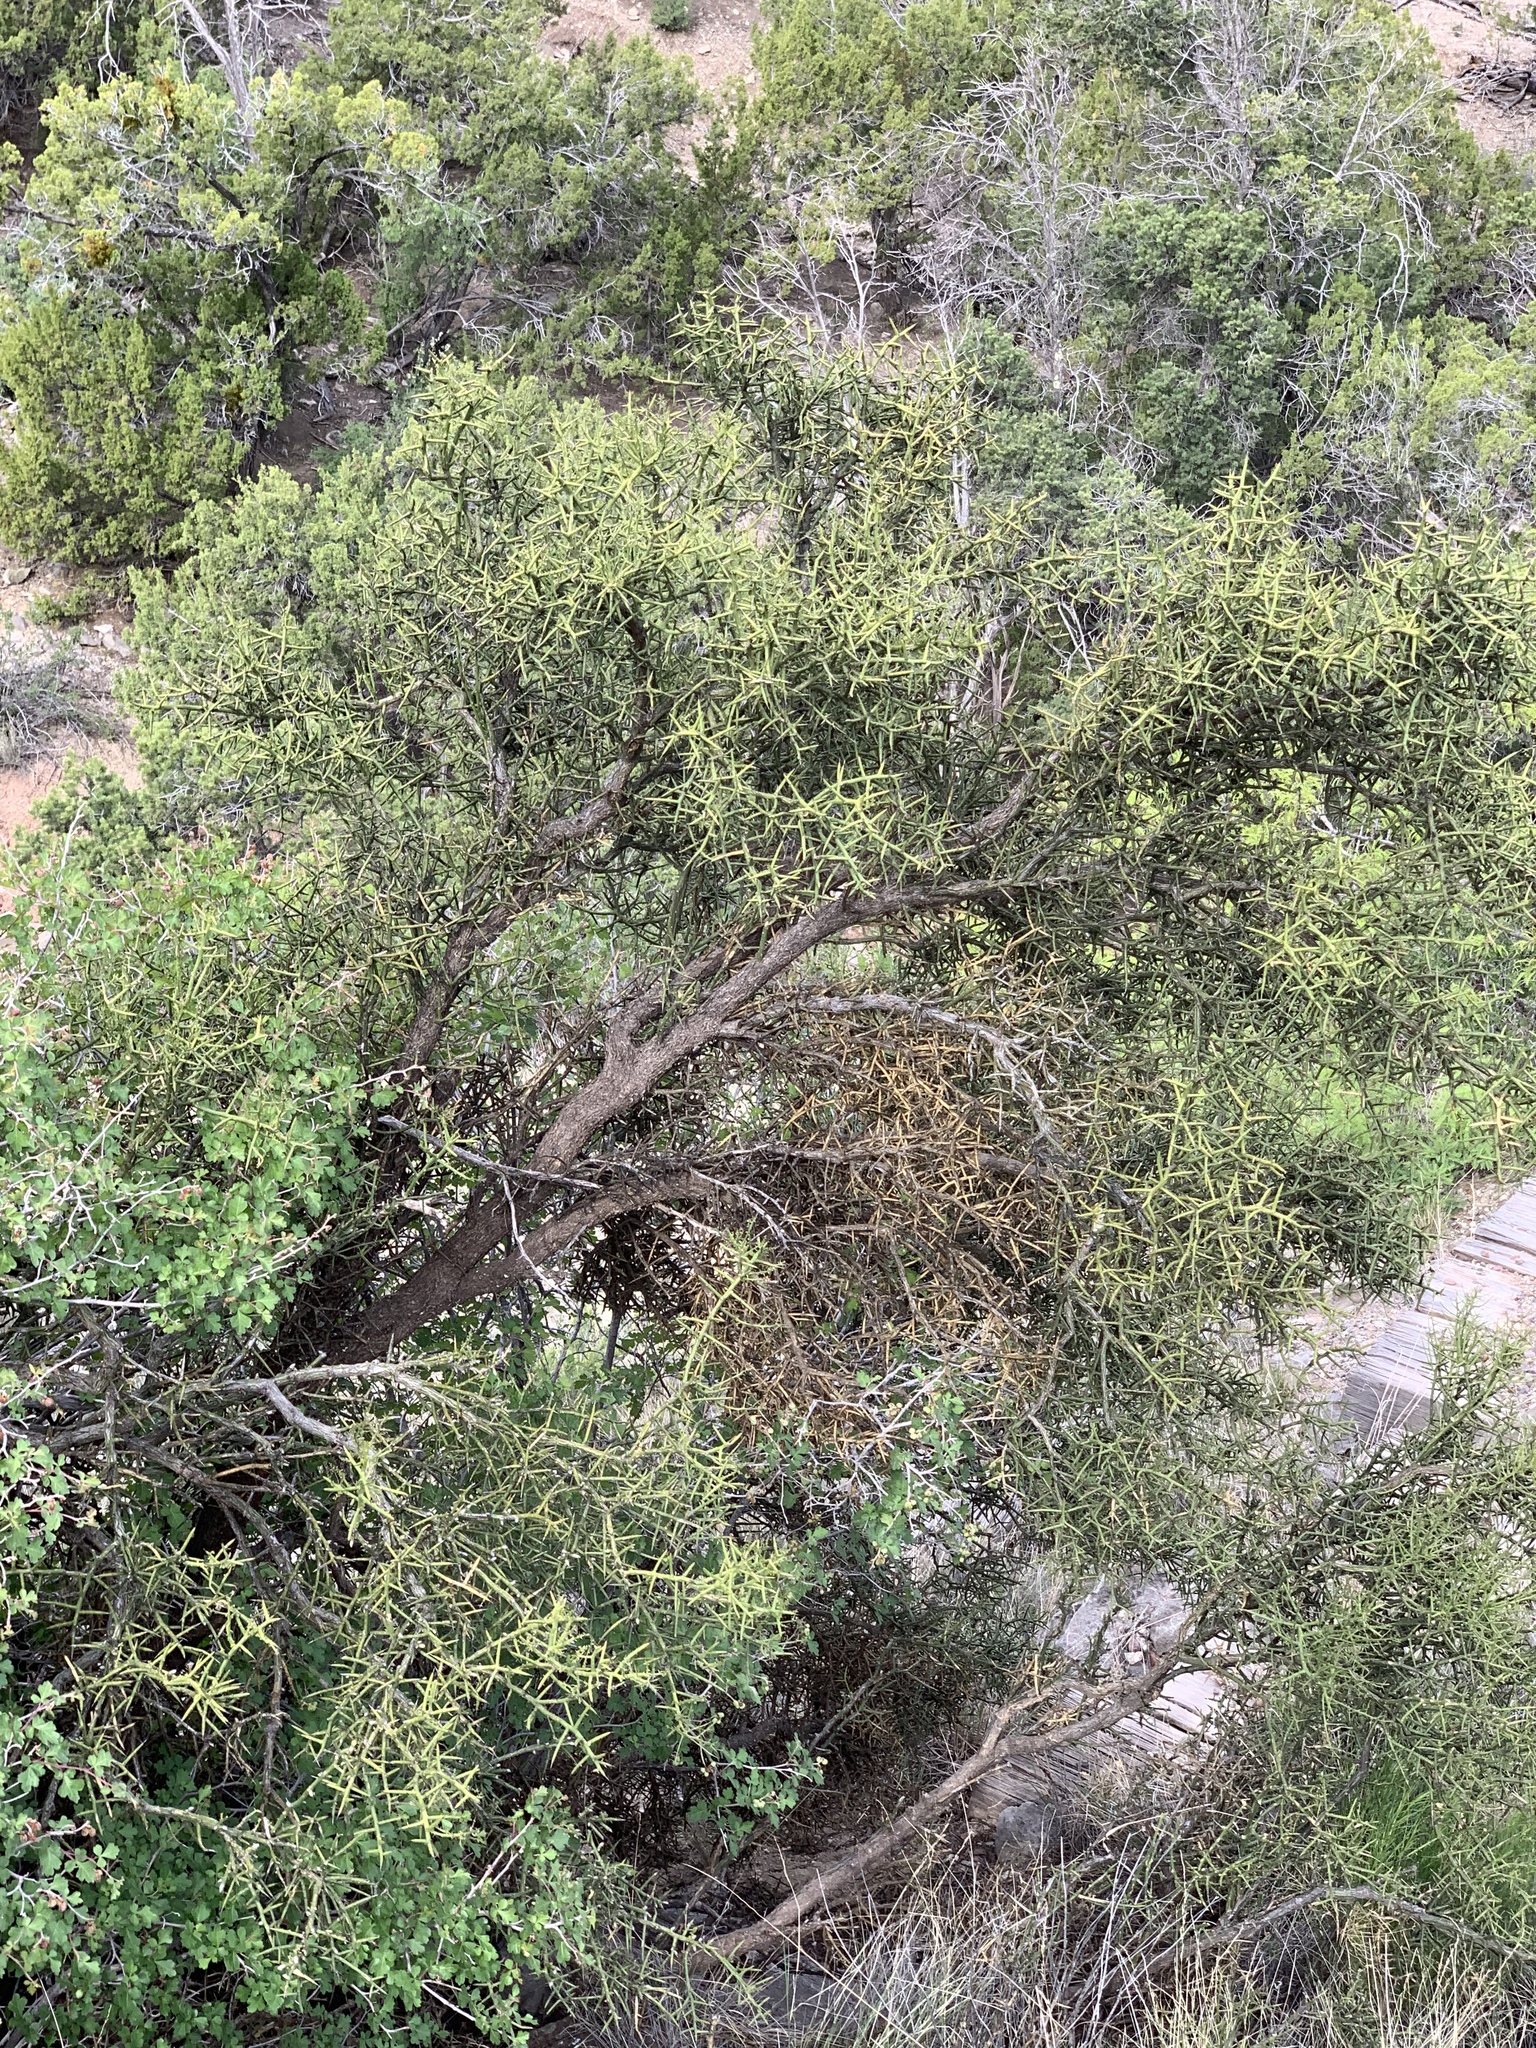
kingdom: Plantae
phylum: Tracheophyta
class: Magnoliopsida
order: Brassicales
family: Koeberliniaceae
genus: Koeberlinia
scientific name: Koeberlinia spinosa
